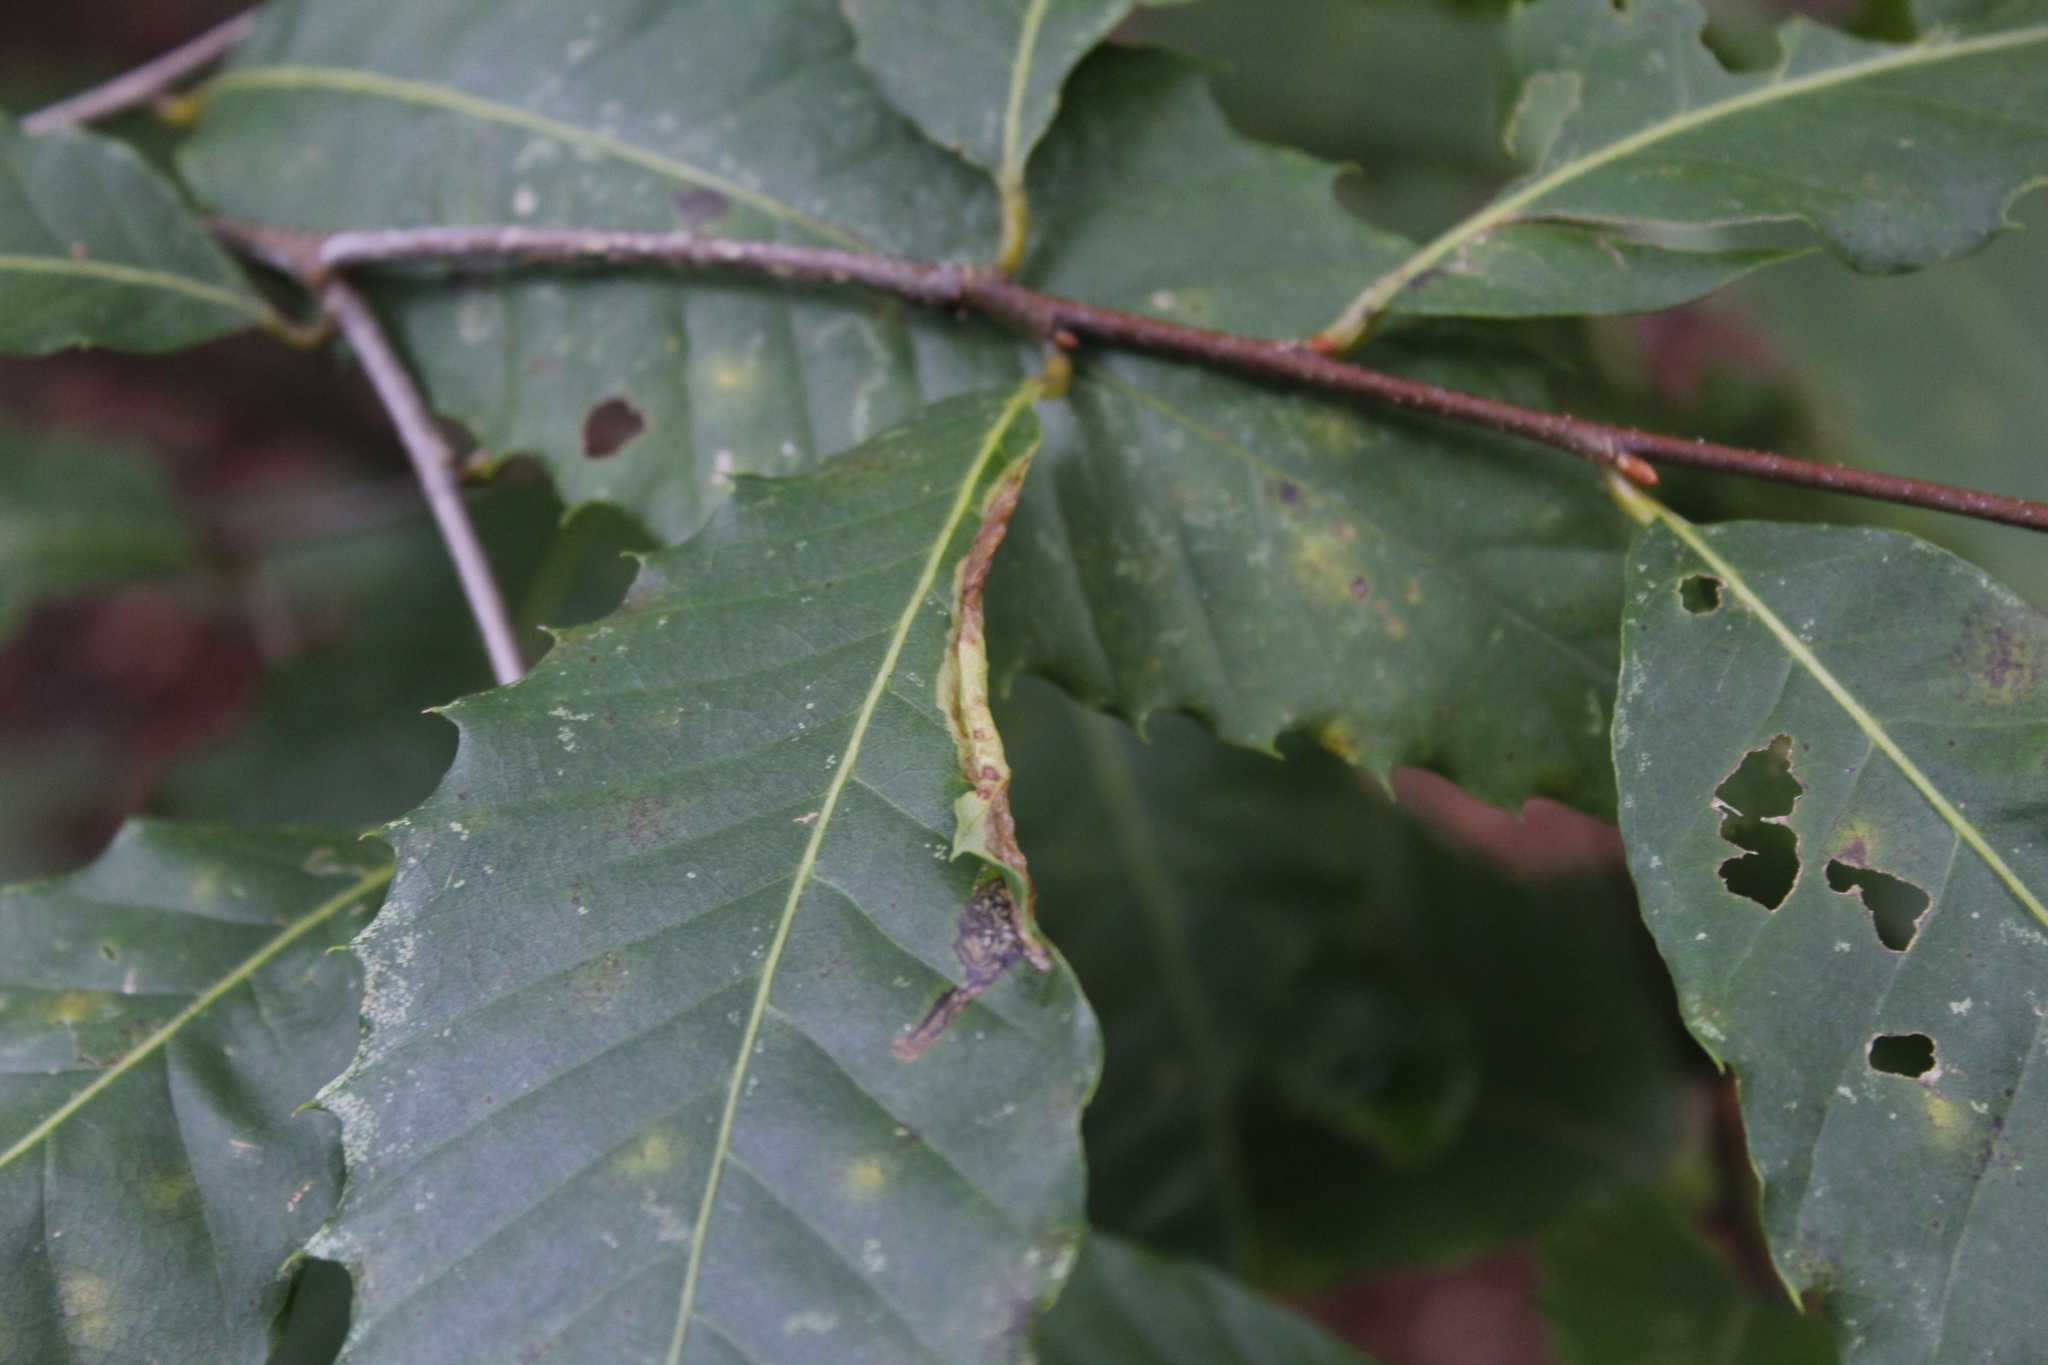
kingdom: Animalia
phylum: Arthropoda
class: Insecta
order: Lepidoptera
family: Tischeriidae
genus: Coptotriche
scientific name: Coptotriche citrinipennella
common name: The golden sweeper
